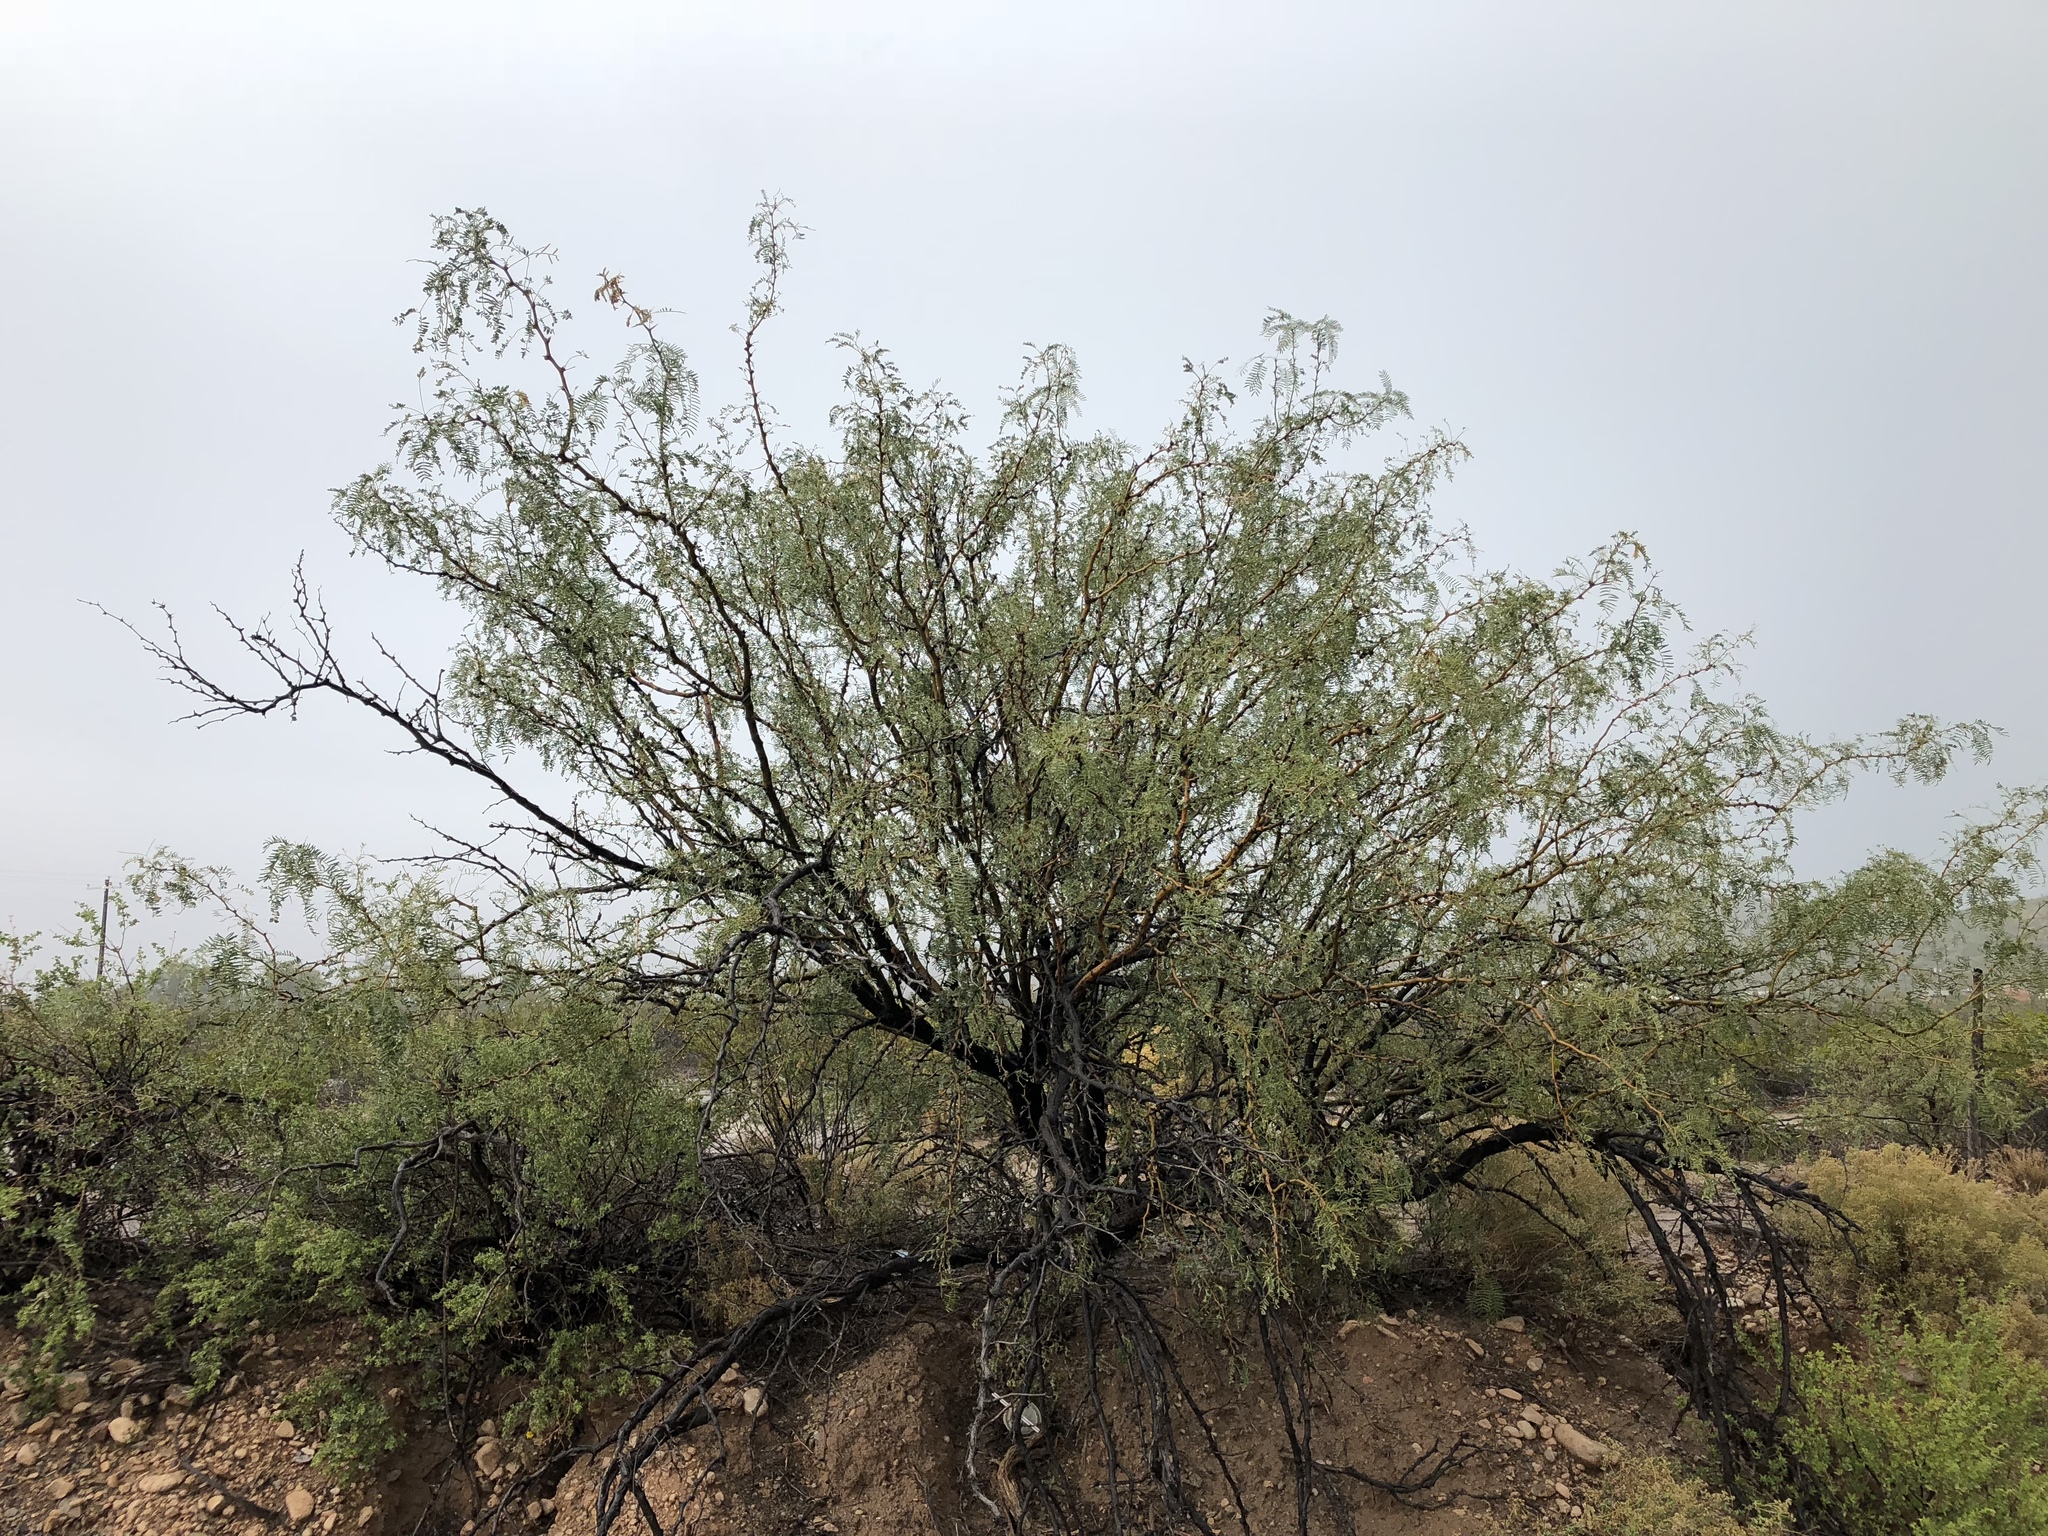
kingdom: Plantae
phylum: Tracheophyta
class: Magnoliopsida
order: Fabales
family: Fabaceae
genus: Prosopis
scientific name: Prosopis glandulosa
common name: Honey mesquite
